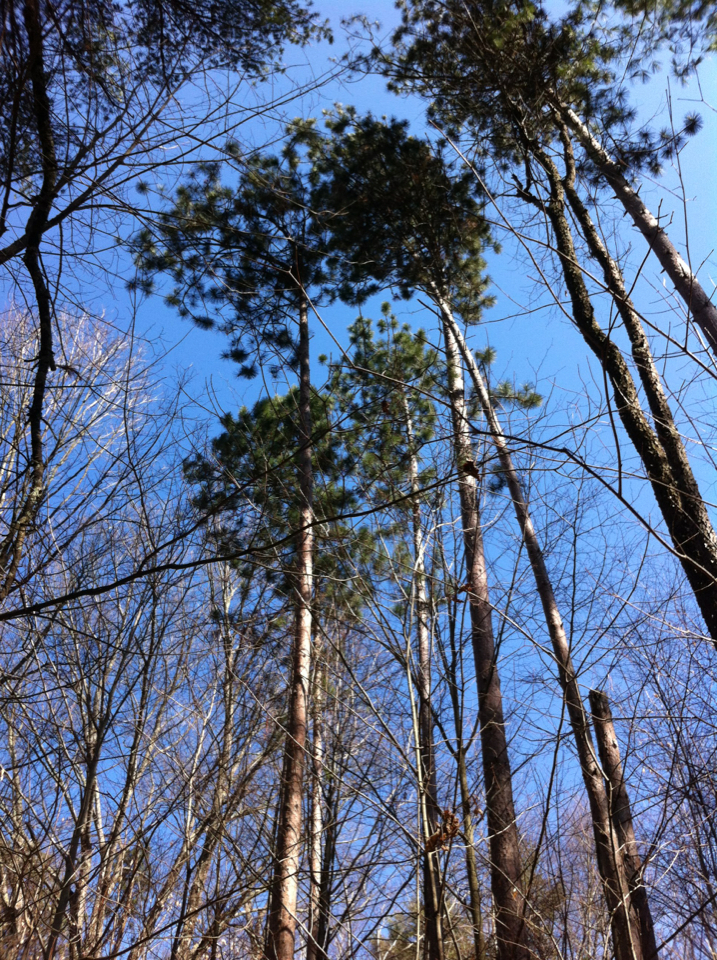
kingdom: Plantae
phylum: Tracheophyta
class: Pinopsida
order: Pinales
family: Pinaceae
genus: Pinus
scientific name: Pinus resinosa
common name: Norway pine
